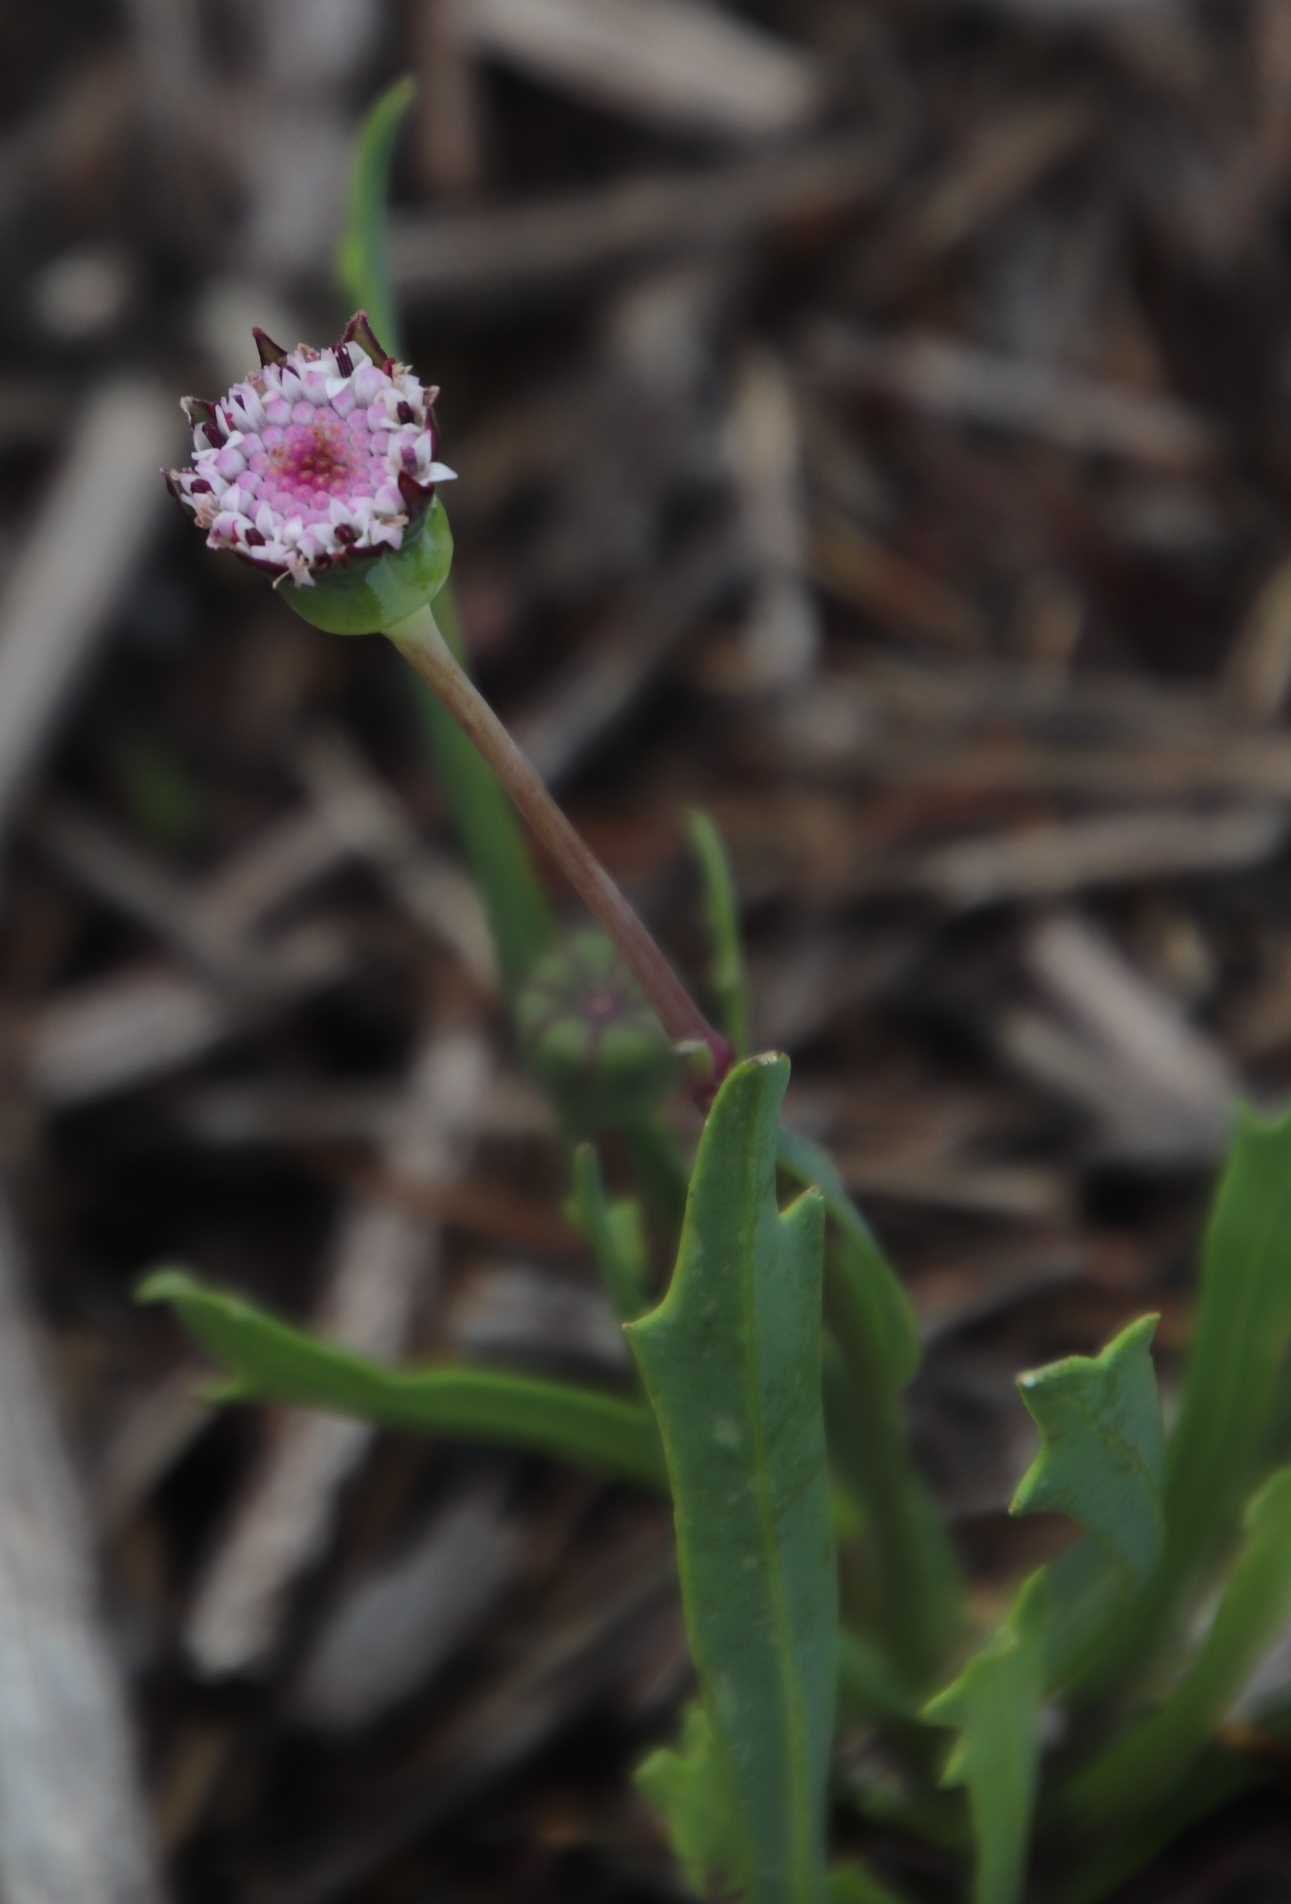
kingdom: Plantae
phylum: Tracheophyta
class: Magnoliopsida
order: Asterales
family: Asteraceae
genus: Othonna
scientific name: Othonna digitata
